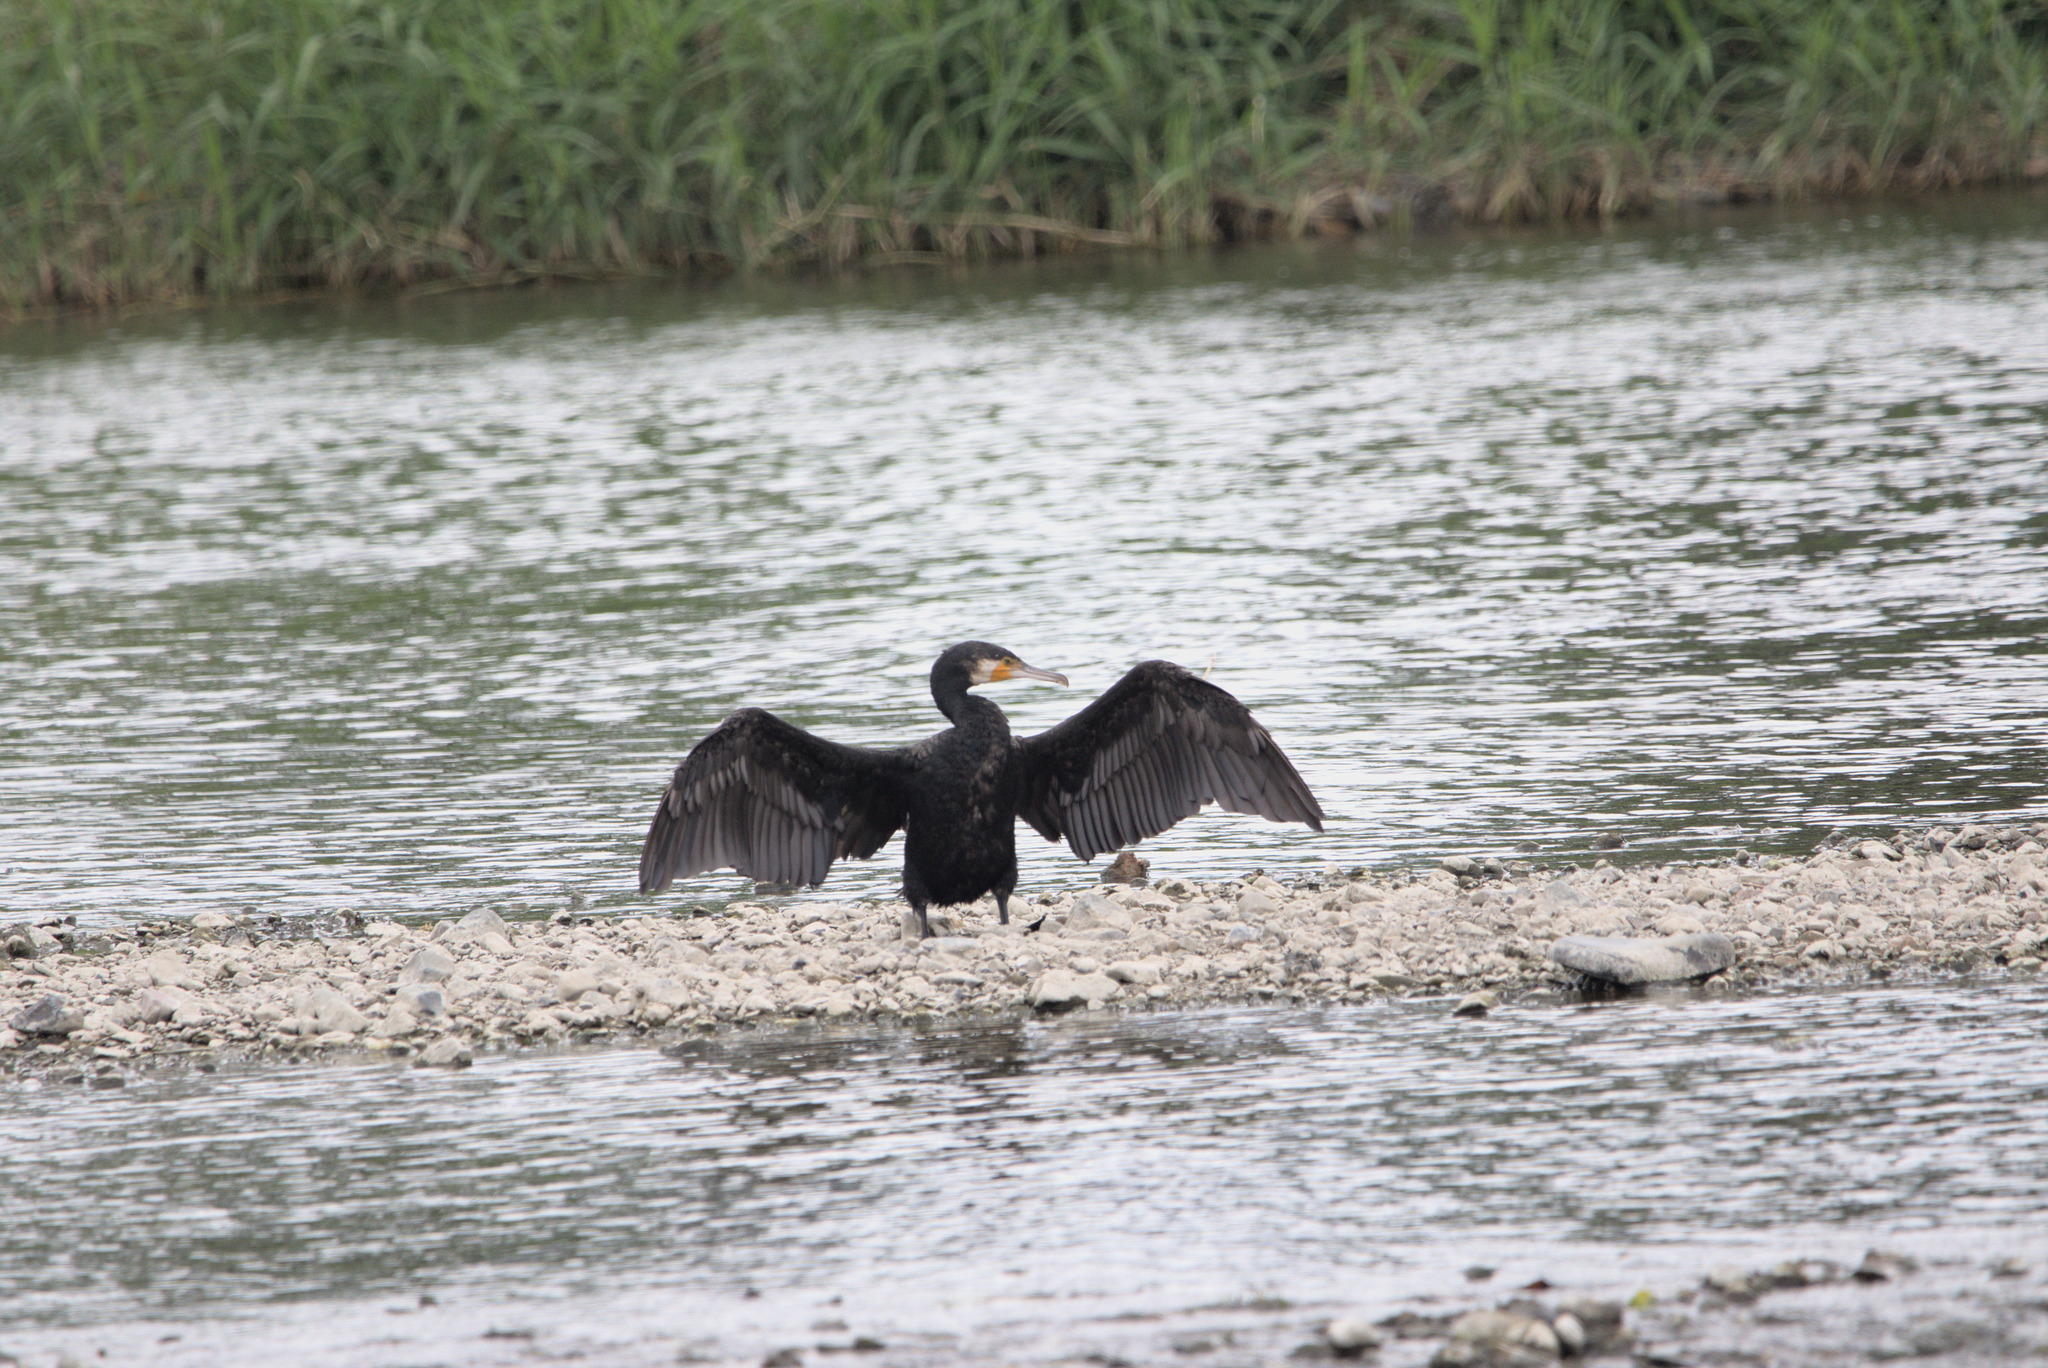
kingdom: Animalia
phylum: Chordata
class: Aves
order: Suliformes
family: Phalacrocoracidae
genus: Phalacrocorax
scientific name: Phalacrocorax carbo
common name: Great cormorant
